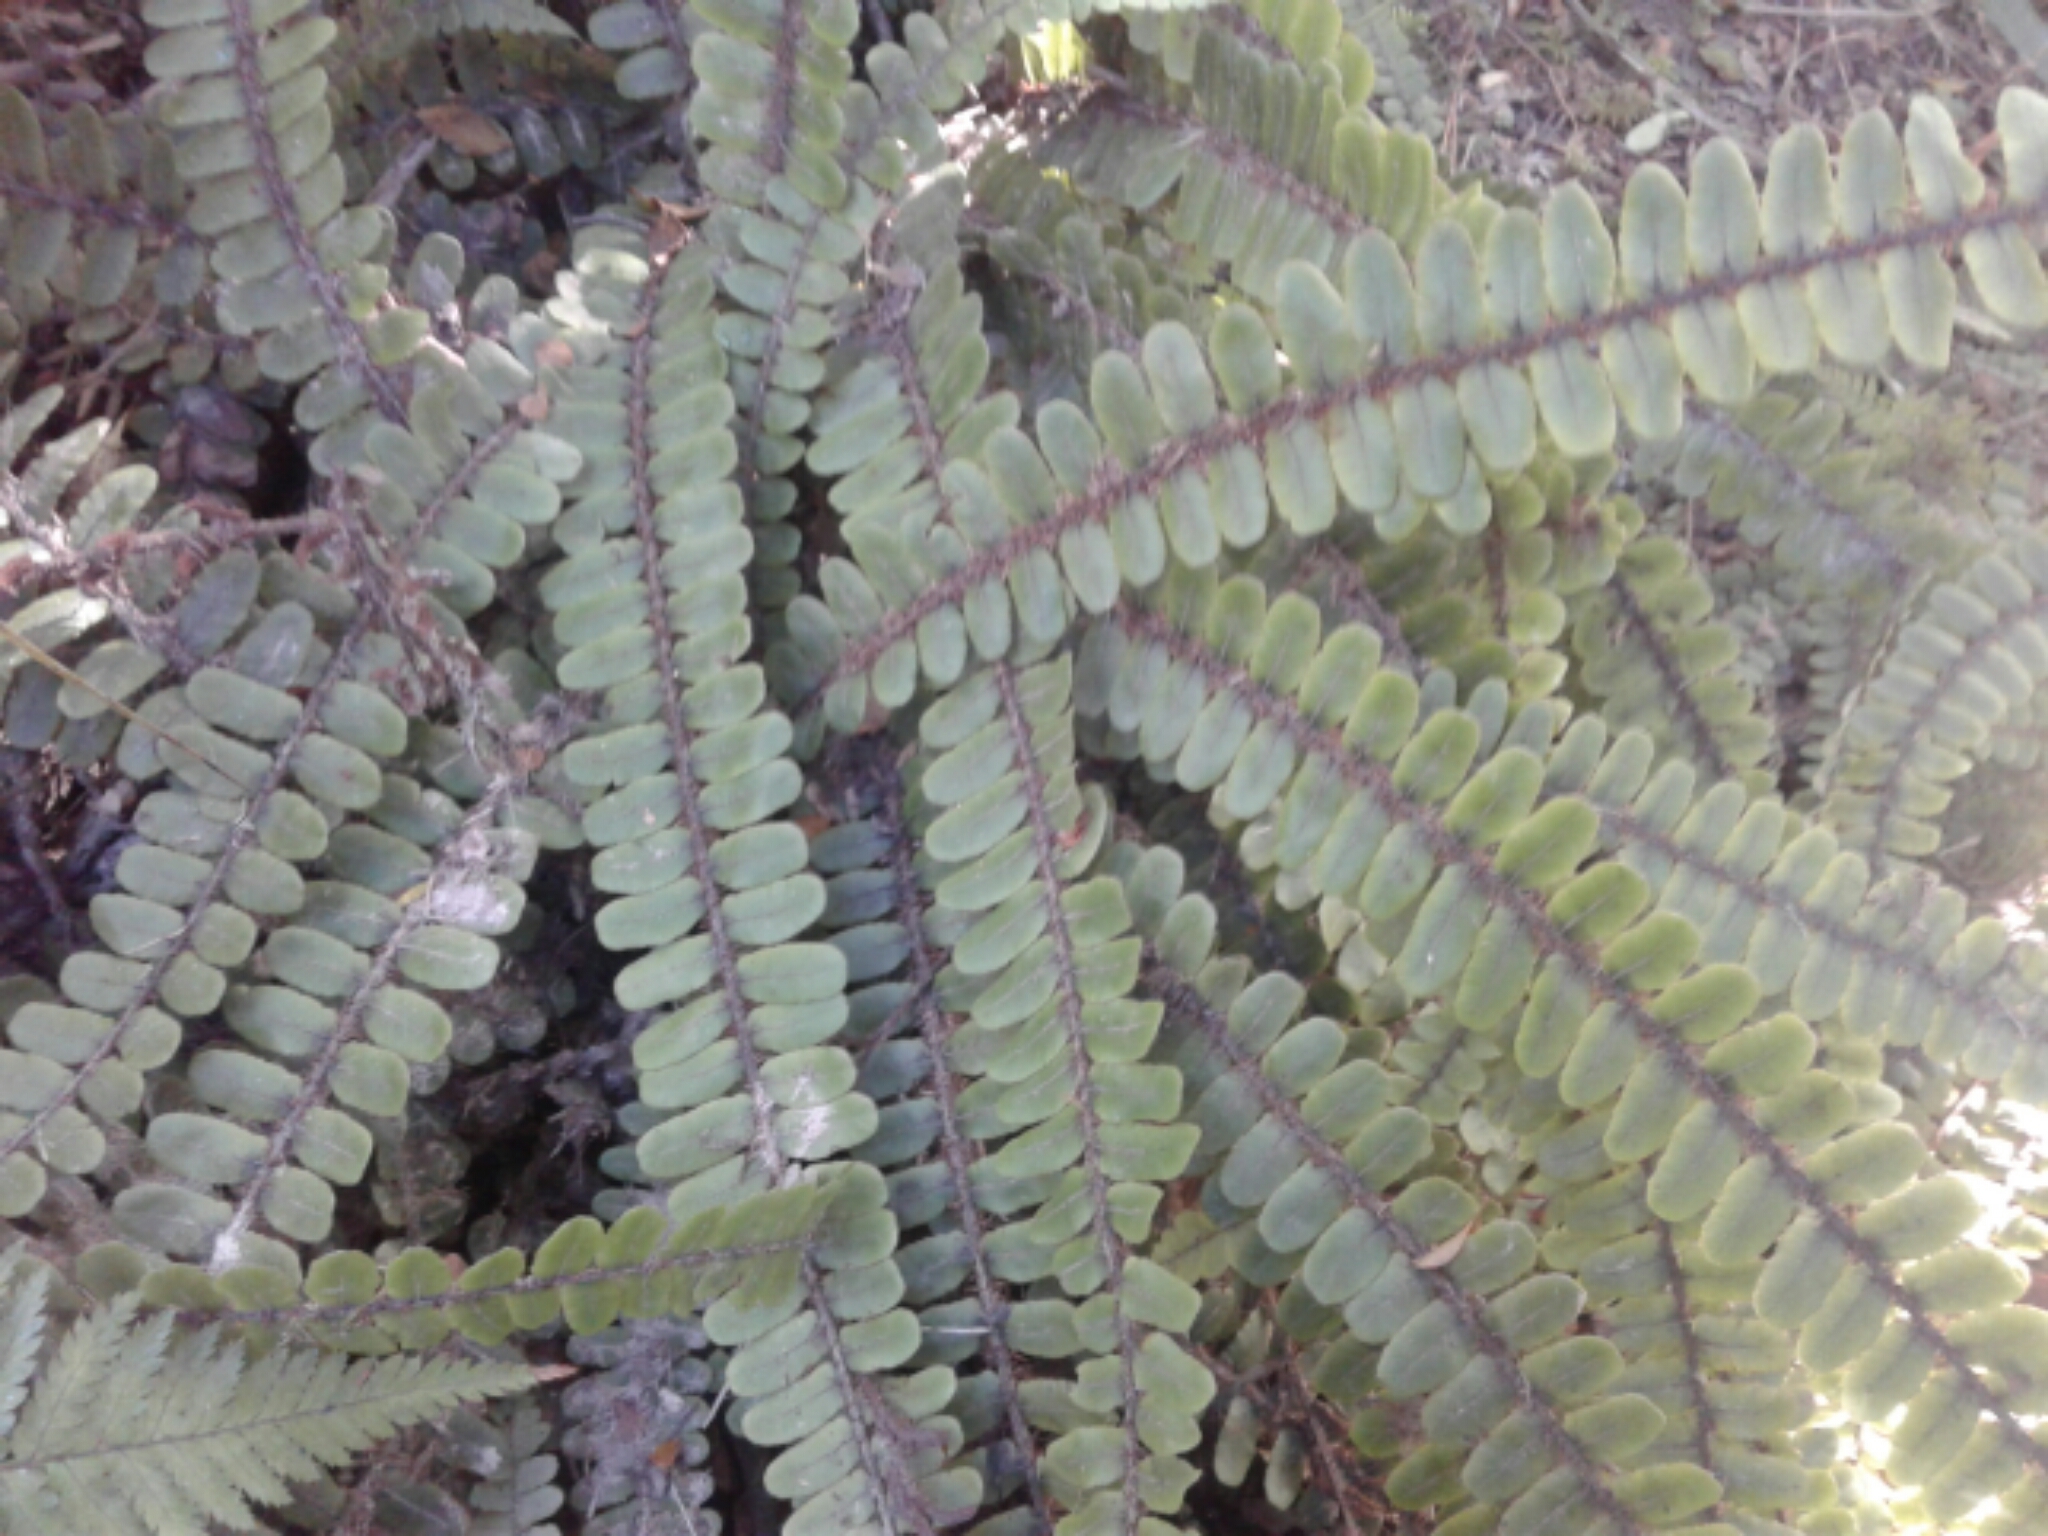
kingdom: Plantae
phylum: Tracheophyta
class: Polypodiopsida
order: Polypodiales
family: Blechnaceae
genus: Cranfillia
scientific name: Cranfillia fluviatilis
